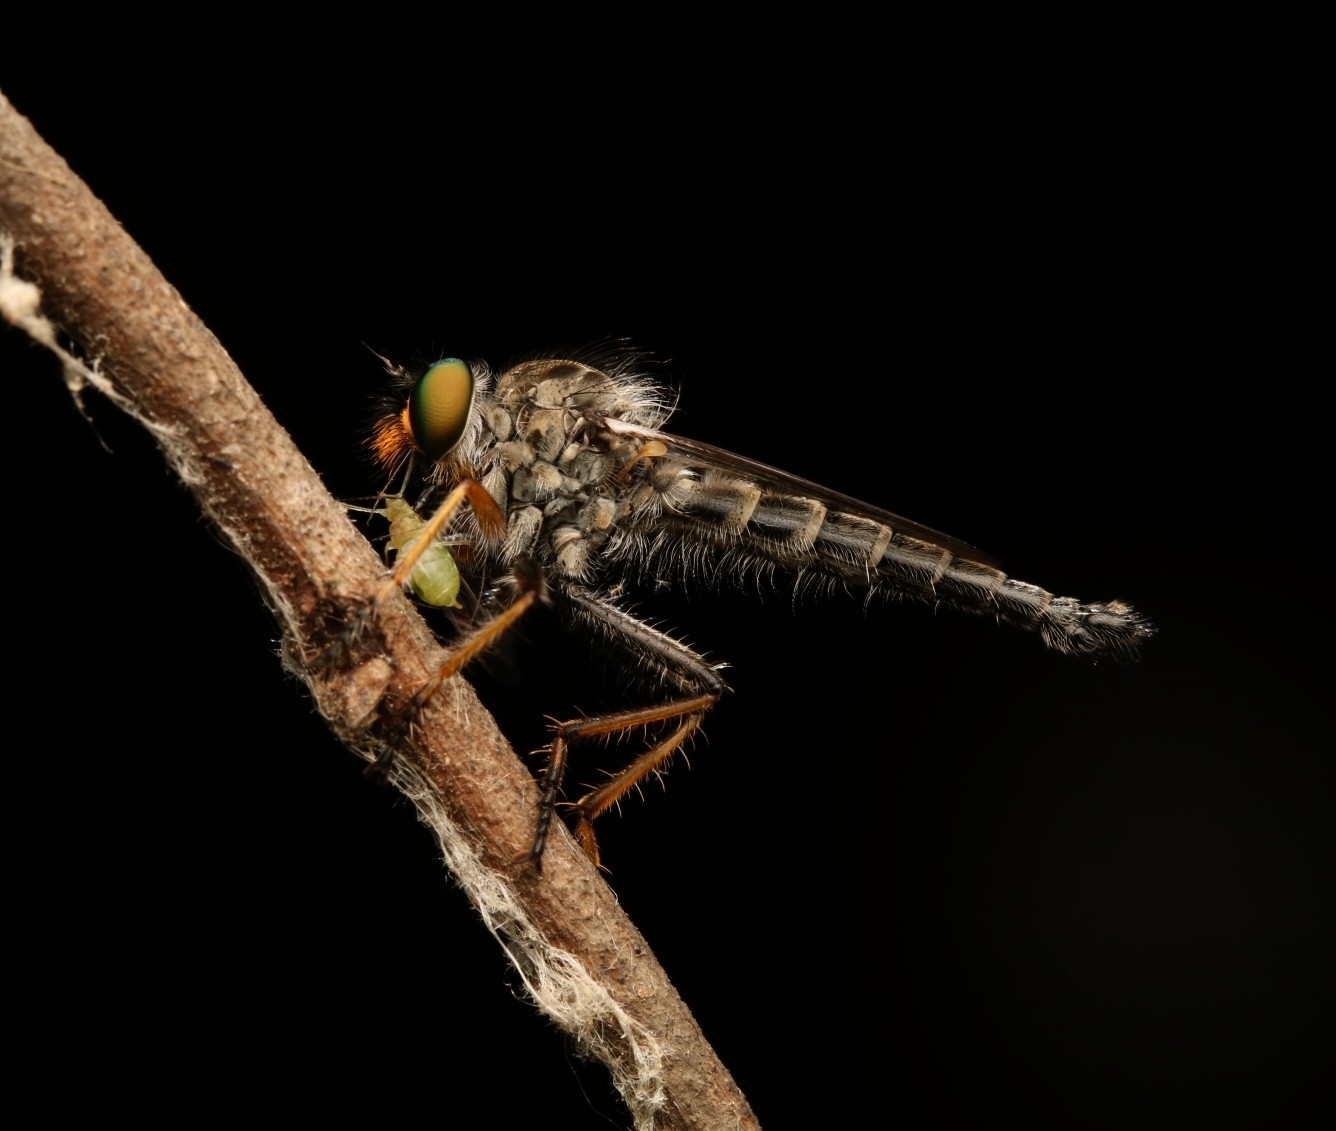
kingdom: Animalia
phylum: Arthropoda
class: Insecta
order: Diptera
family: Asilidae
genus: Asilus
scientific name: Asilus flavofemoratus
